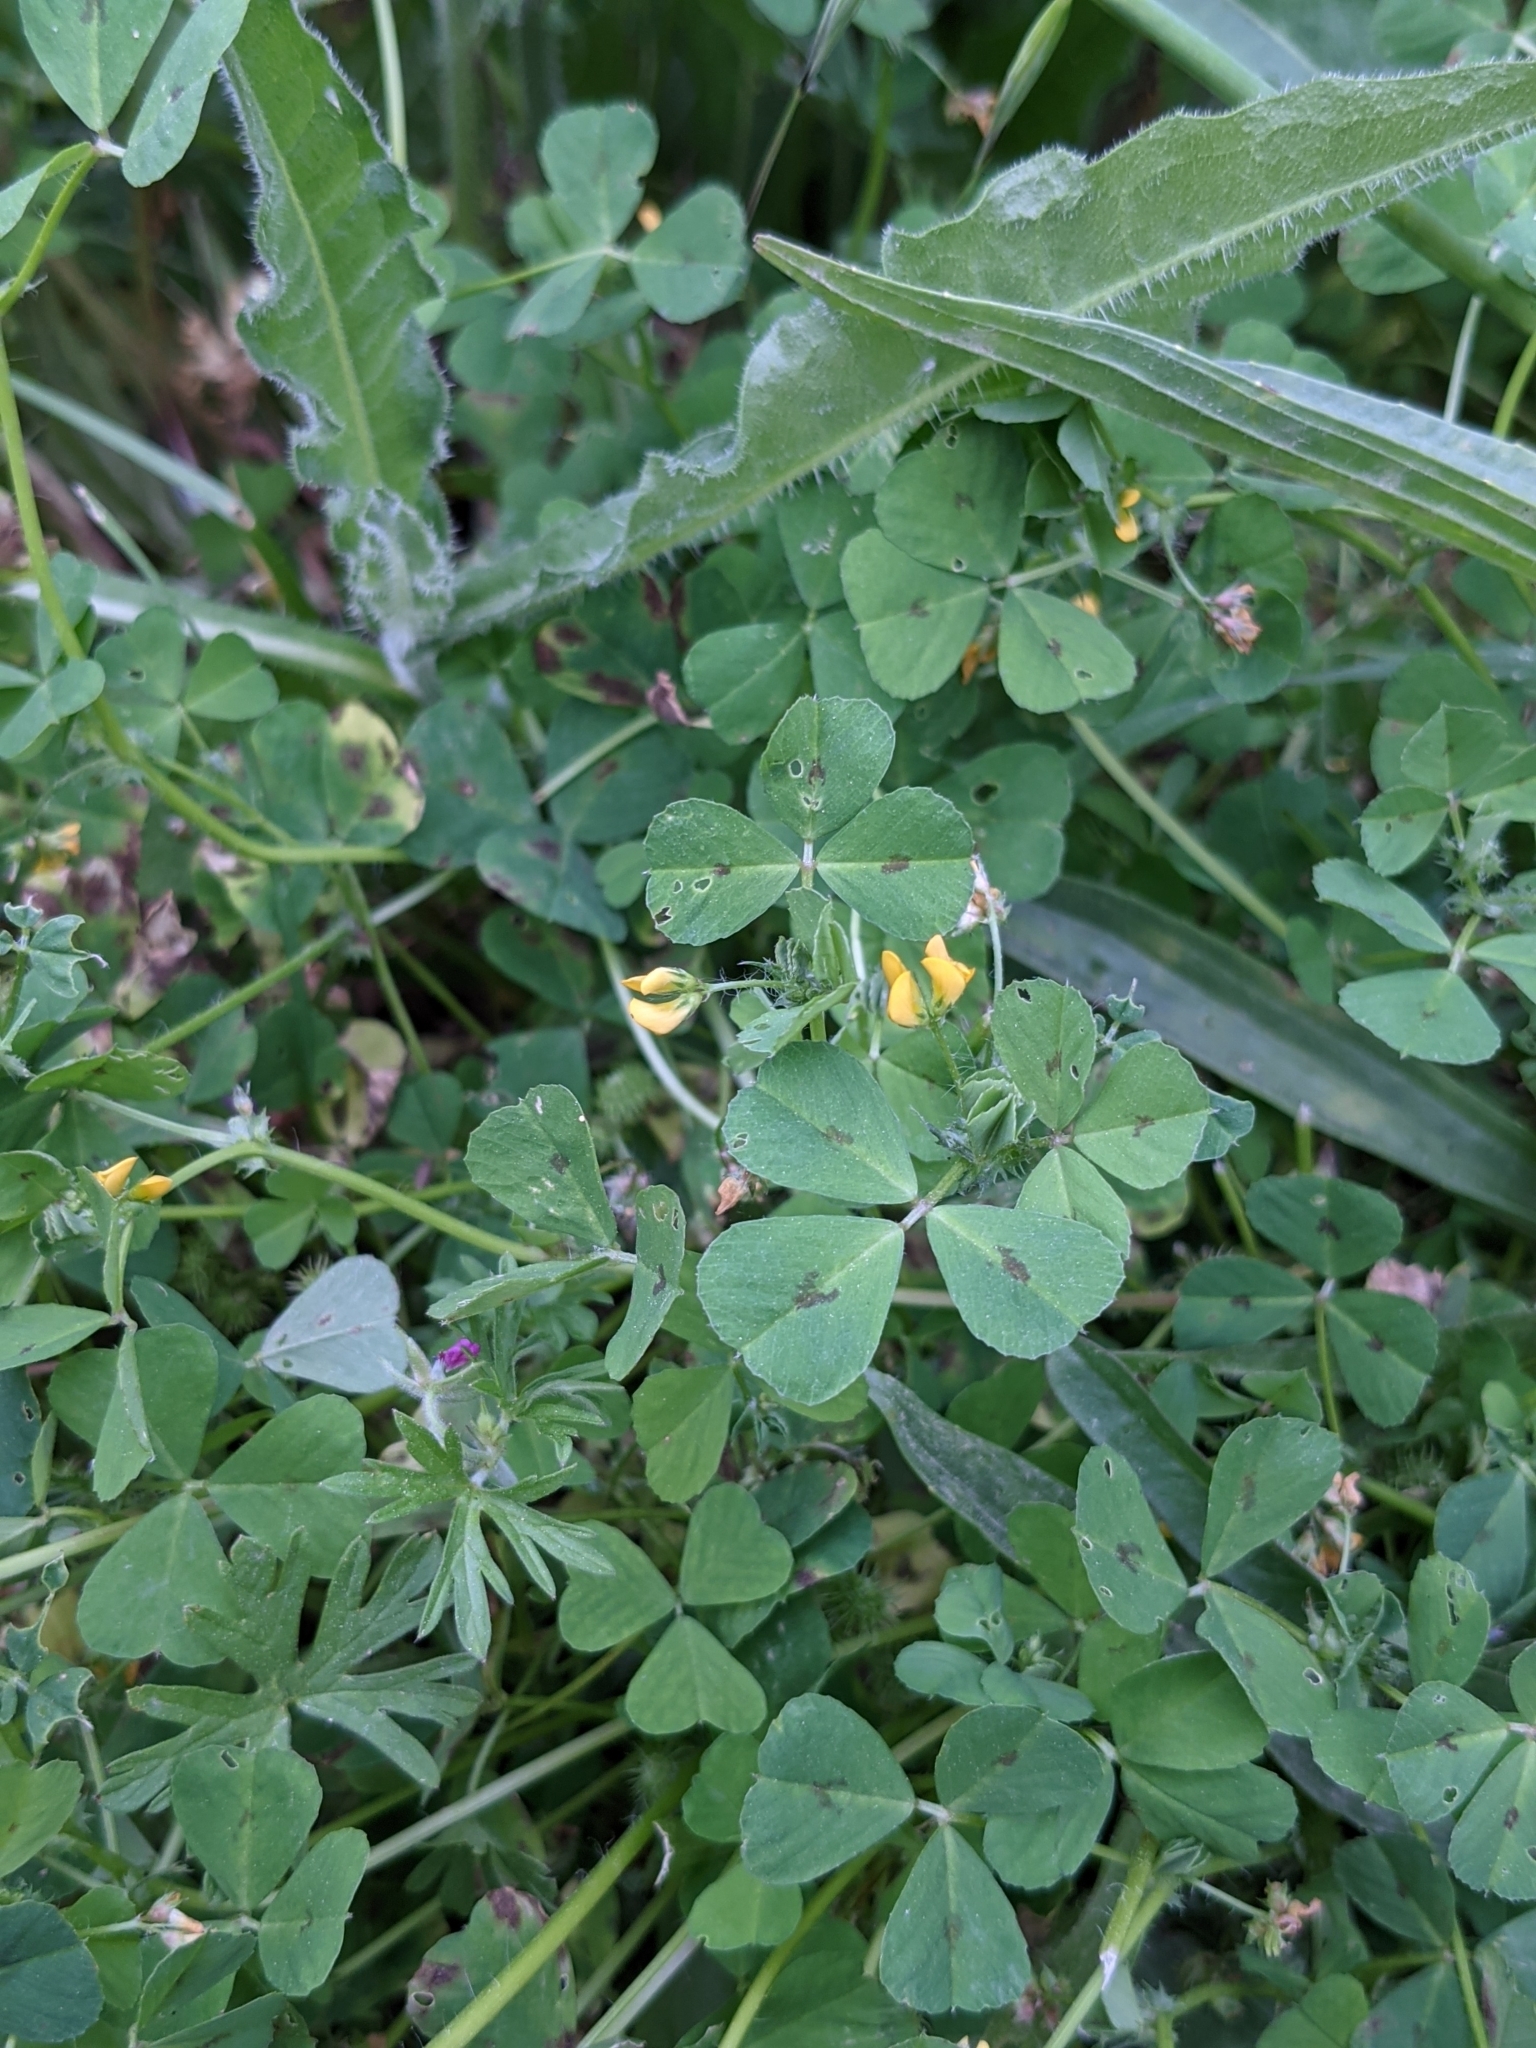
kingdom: Plantae
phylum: Tracheophyta
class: Magnoliopsida
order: Fabales
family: Fabaceae
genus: Medicago
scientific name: Medicago arabica
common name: Spotted medick
